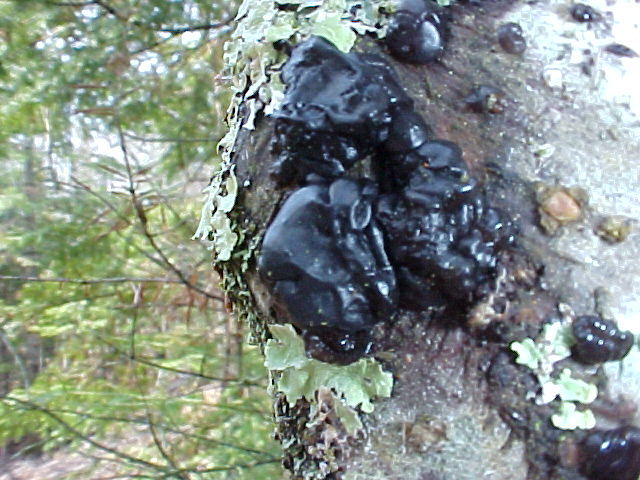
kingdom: Fungi
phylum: Basidiomycota
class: Agaricomycetes
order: Auriculariales
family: Auriculariaceae
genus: Exidia
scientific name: Exidia glandulosa
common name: Witches' butter
